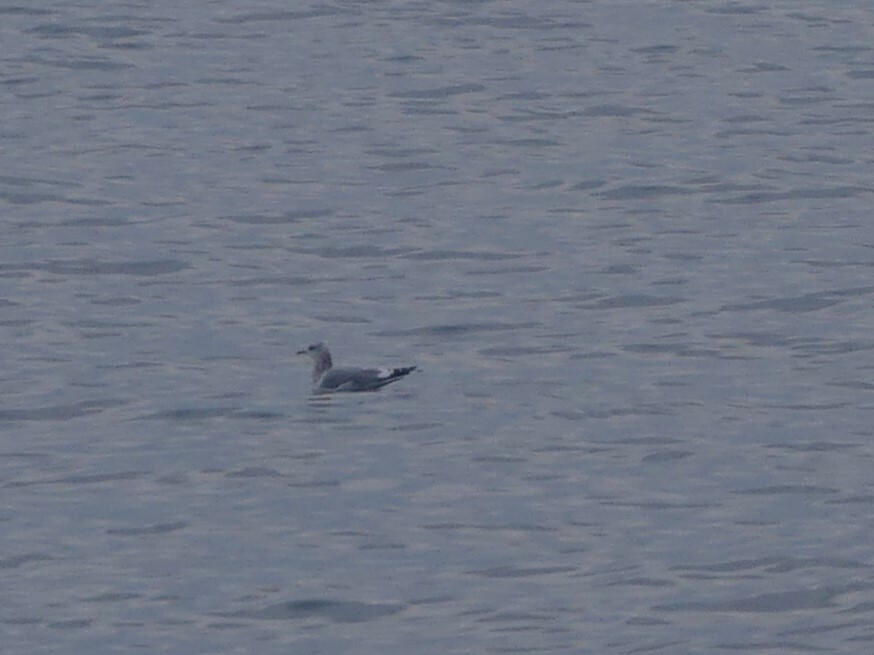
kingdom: Animalia
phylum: Chordata
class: Aves
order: Charadriiformes
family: Laridae
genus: Larus
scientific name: Larus brachyrhynchus
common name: Short-billed gull
